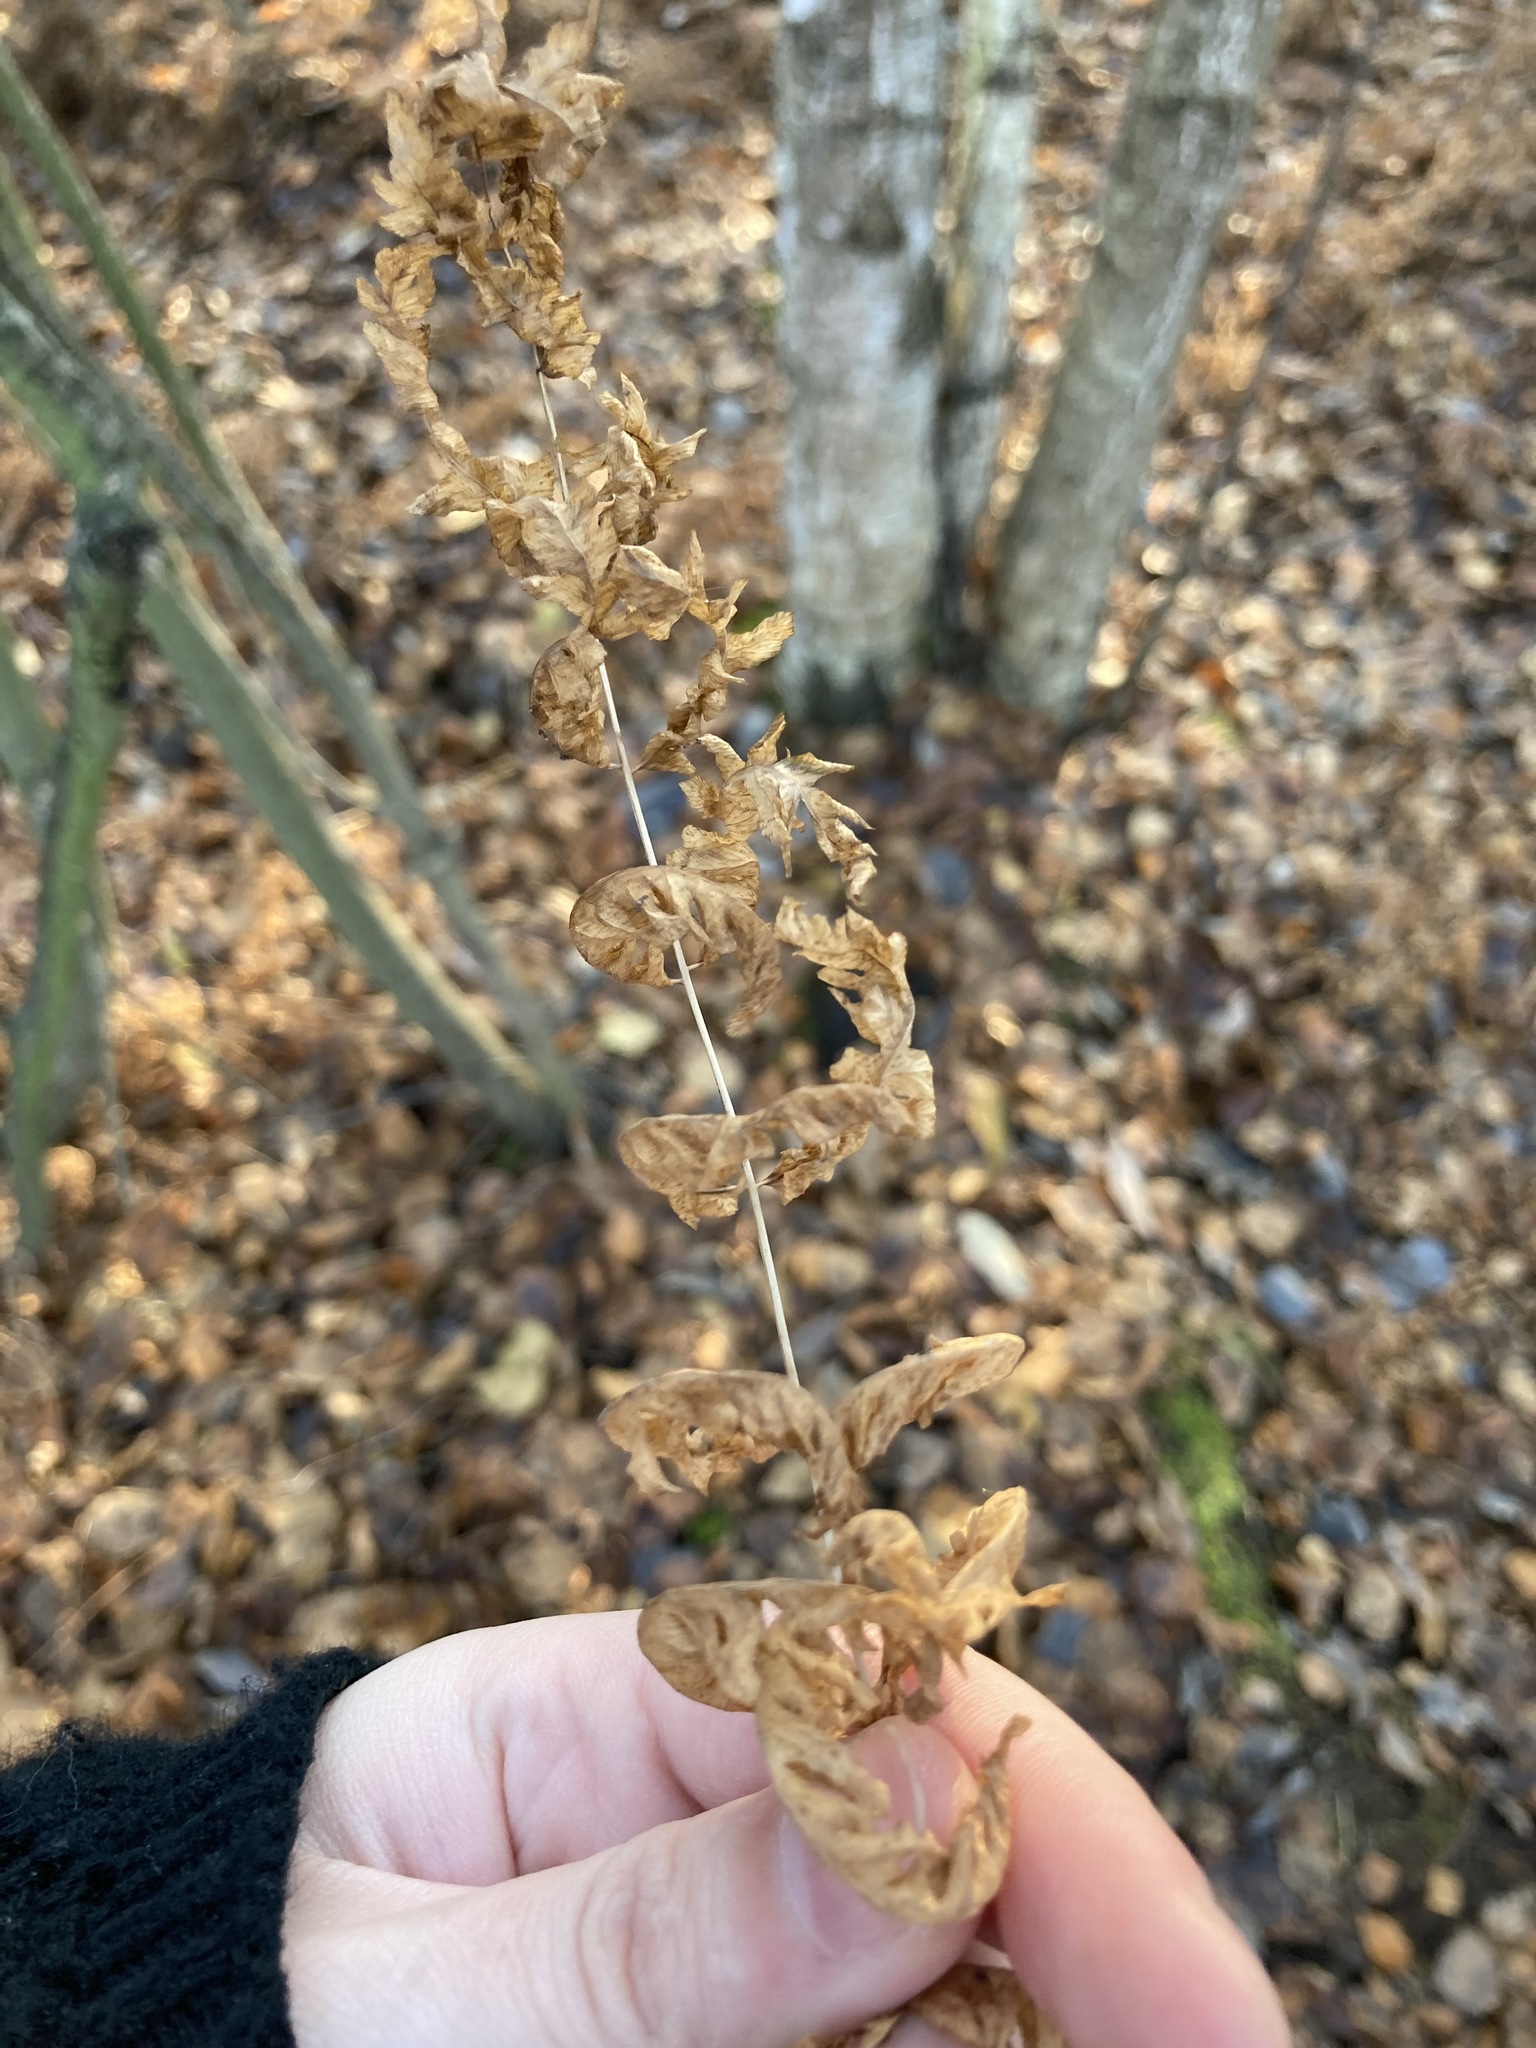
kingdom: Plantae
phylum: Tracheophyta
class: Polypodiopsida
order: Polypodiales
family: Thelypteridaceae
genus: Thelypteris
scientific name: Thelypteris palustris
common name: Marsh fern
